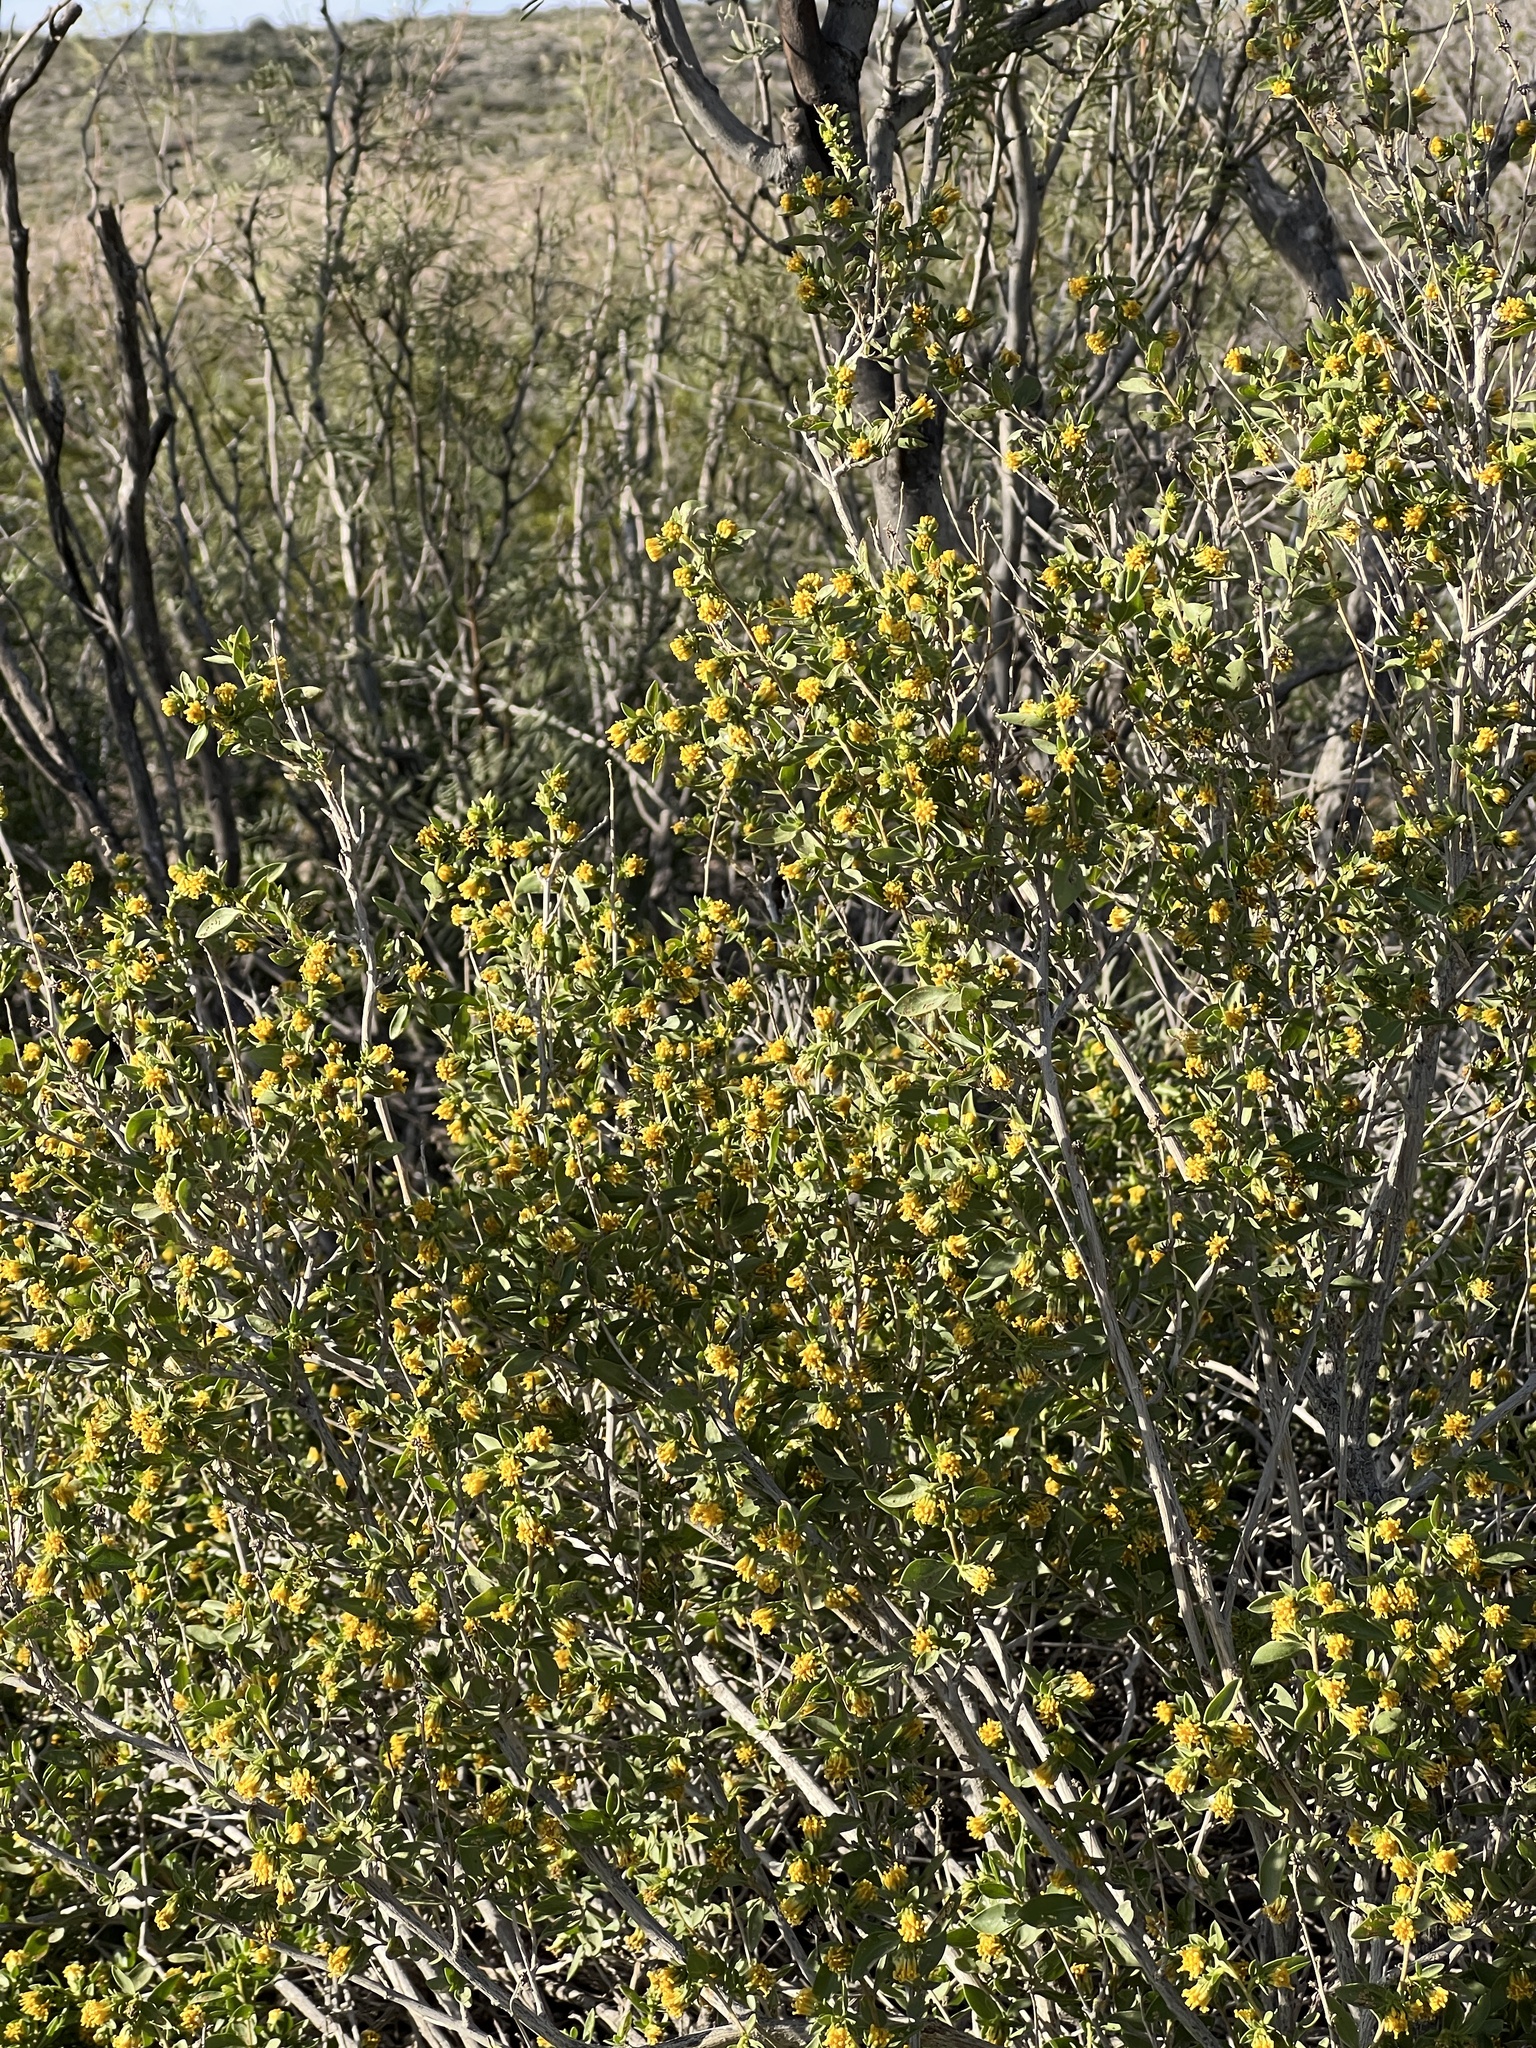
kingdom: Plantae
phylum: Tracheophyta
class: Magnoliopsida
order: Asterales
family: Asteraceae
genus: Flourensia
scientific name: Flourensia cernua
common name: Varnishbush
